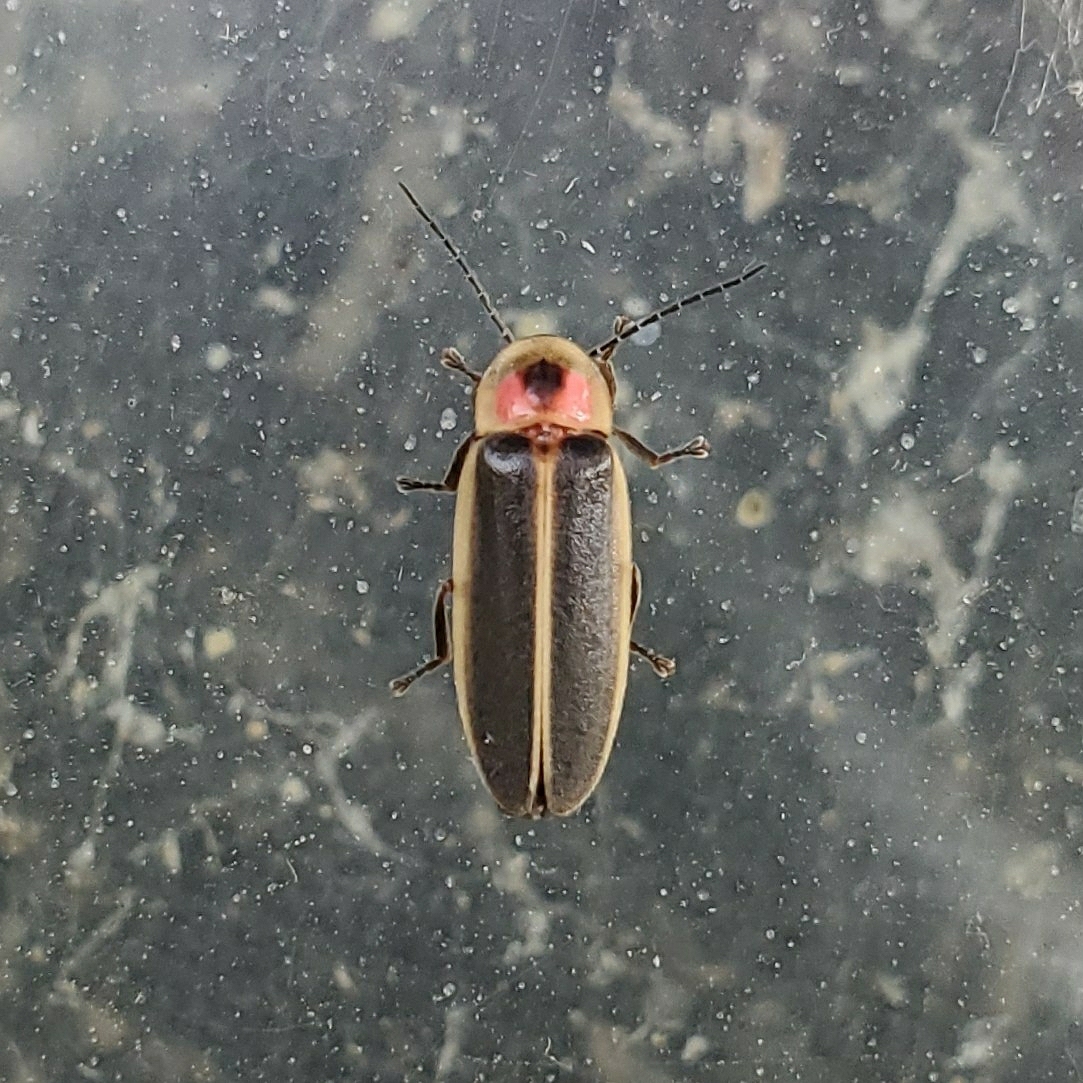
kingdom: Animalia
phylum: Arthropoda
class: Insecta
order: Coleoptera
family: Lampyridae
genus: Photinus
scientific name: Photinus pyralis
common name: Big dipper firefly
